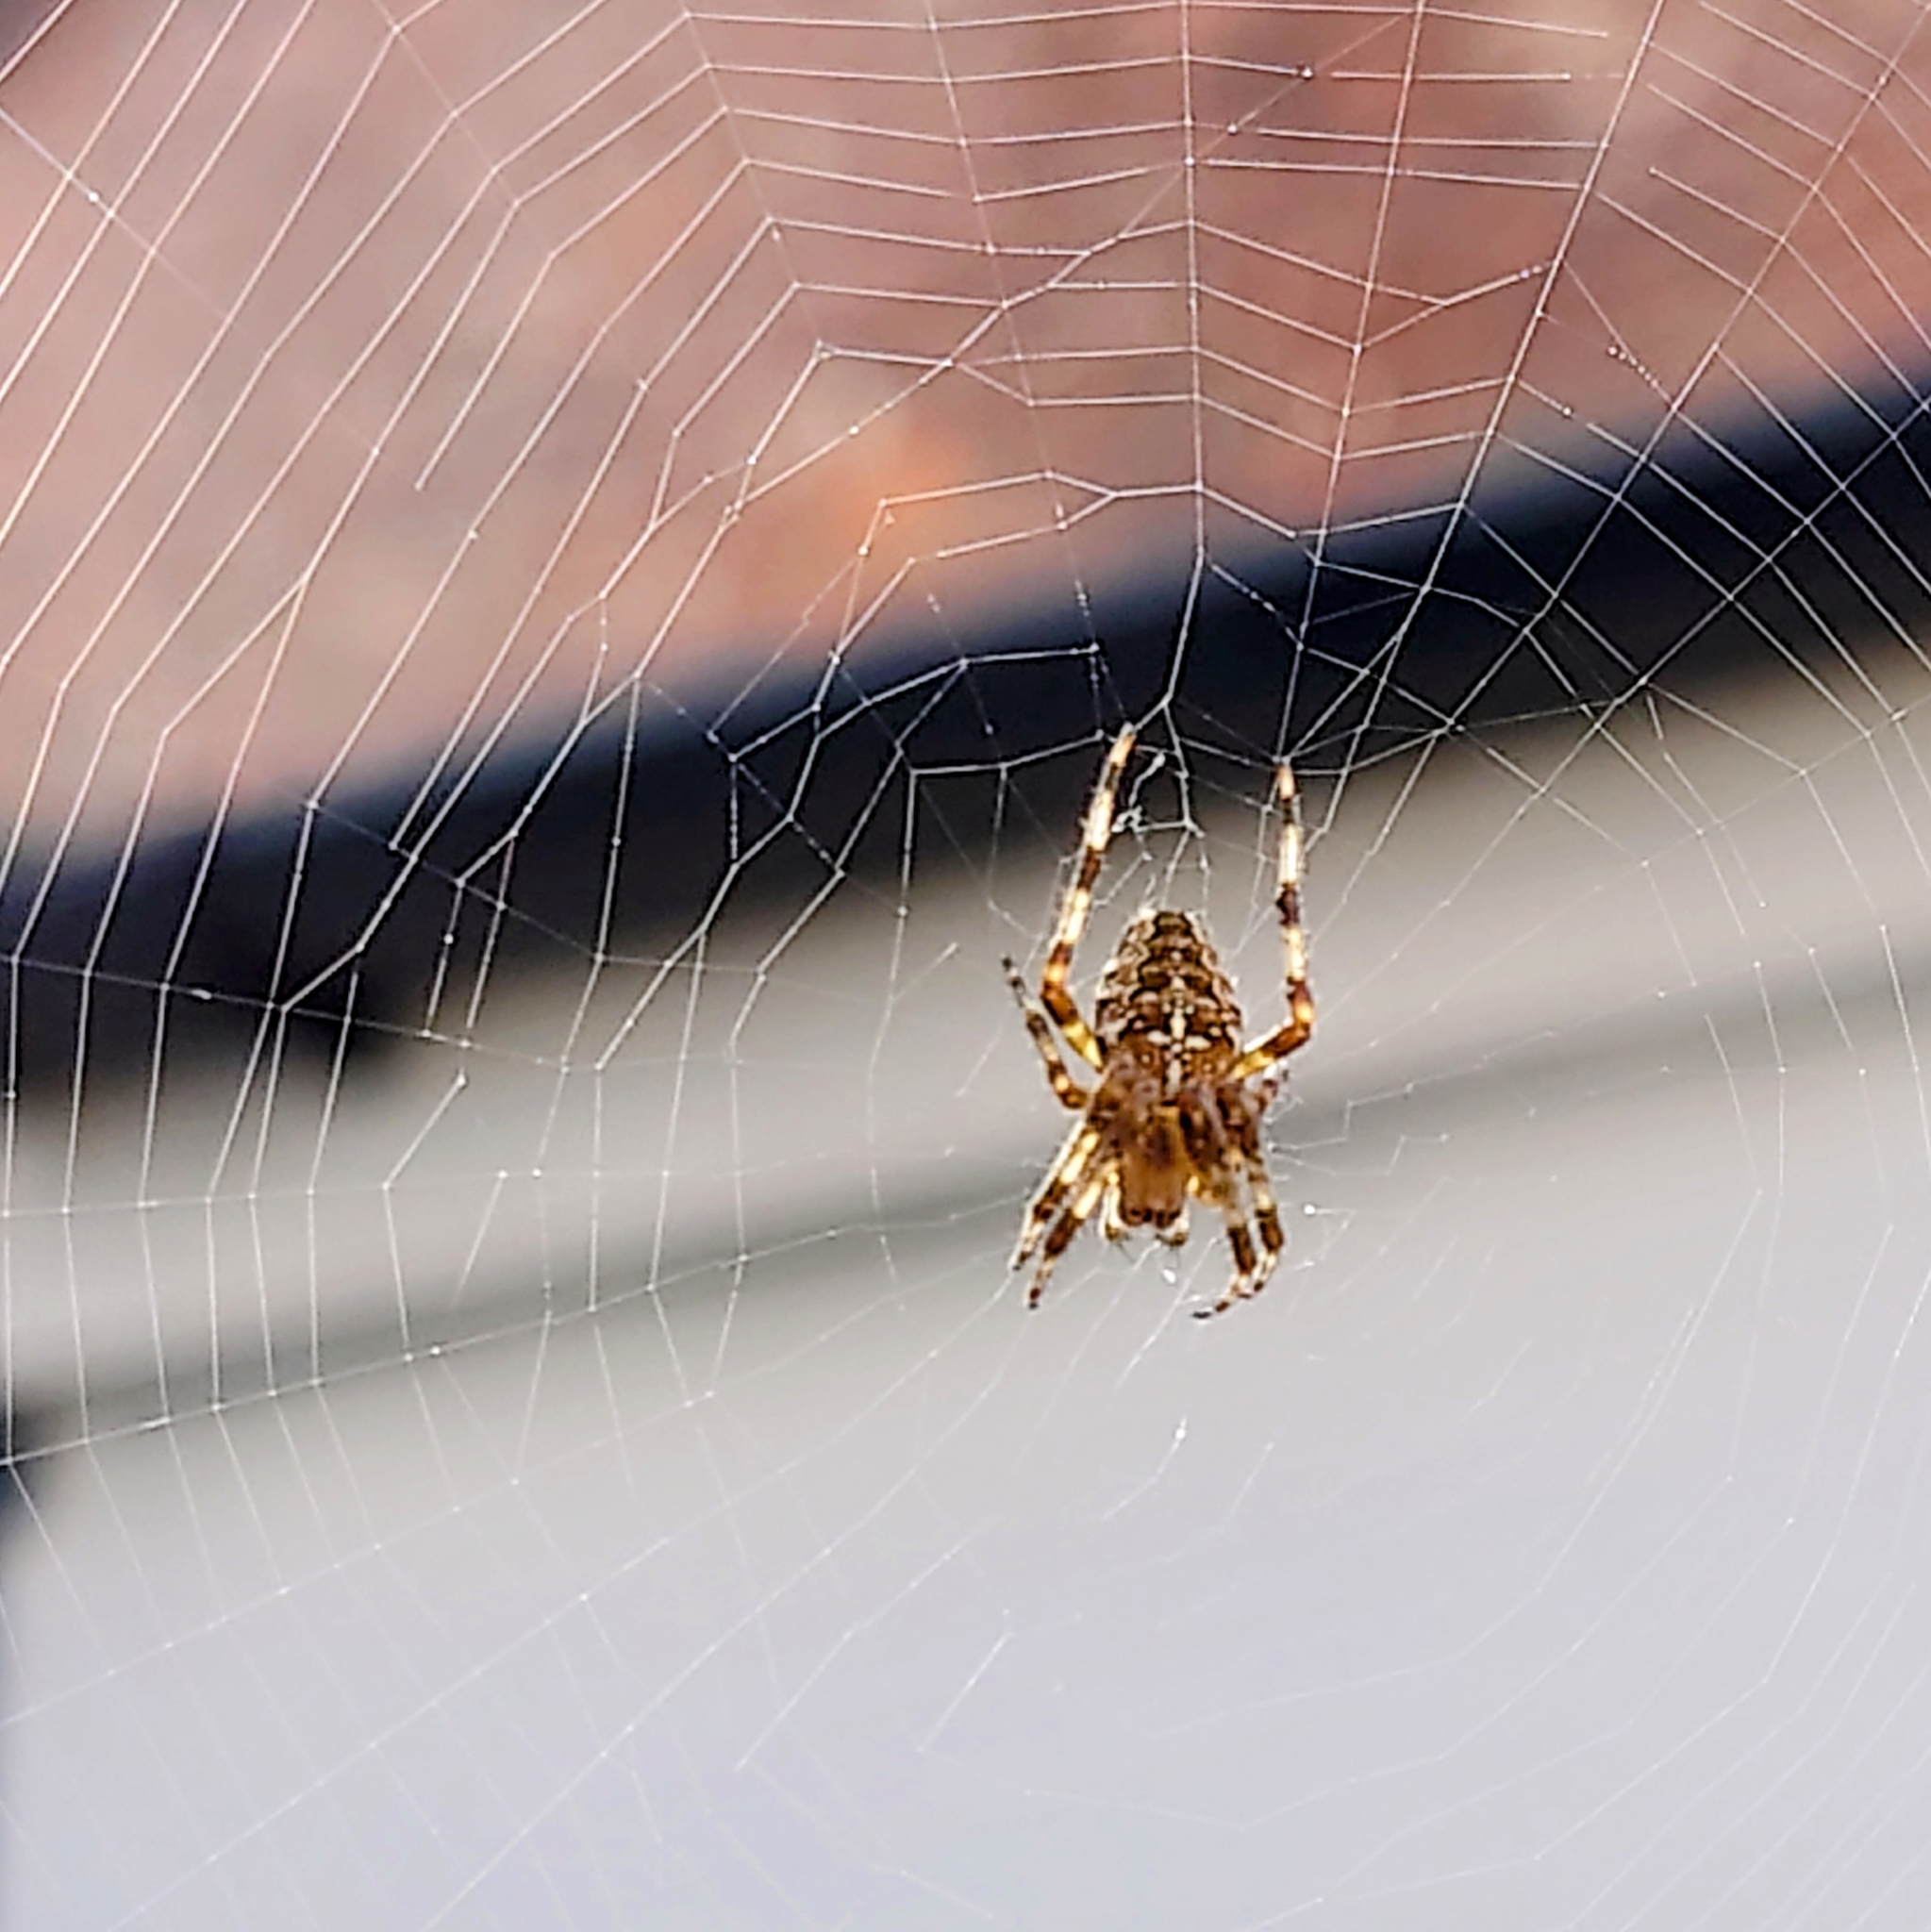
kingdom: Animalia
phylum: Arthropoda
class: Arachnida
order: Araneae
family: Araneidae
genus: Araneus
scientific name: Araneus diadematus
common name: Cross orbweaver
